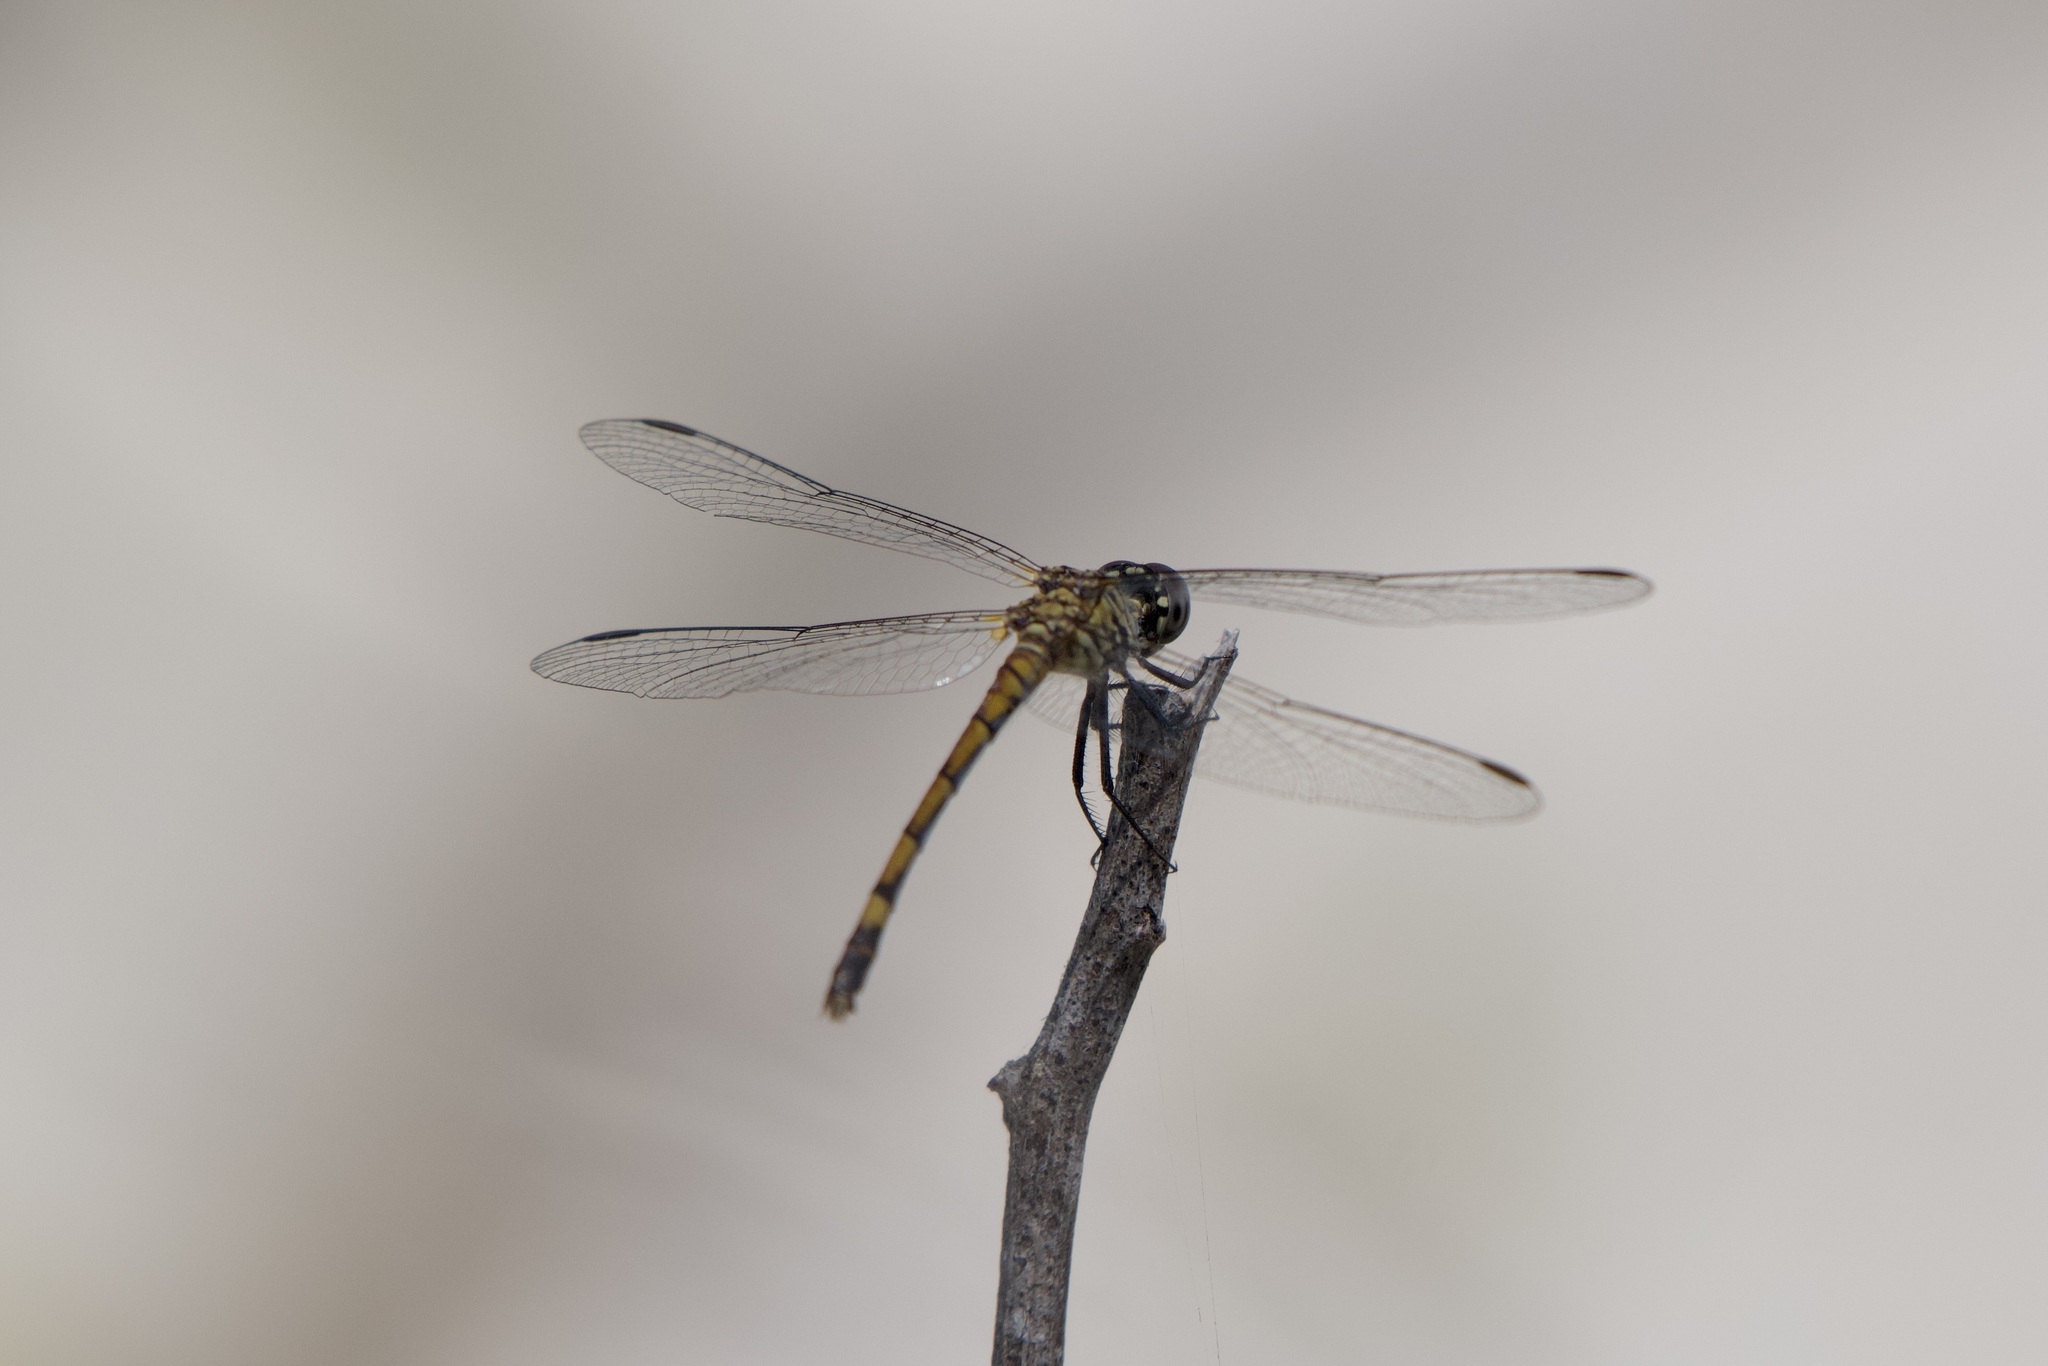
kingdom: Animalia
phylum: Arthropoda
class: Insecta
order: Odonata
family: Libellulidae
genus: Erythrodiplax
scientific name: Erythrodiplax berenice
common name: Seaside dragonlet
